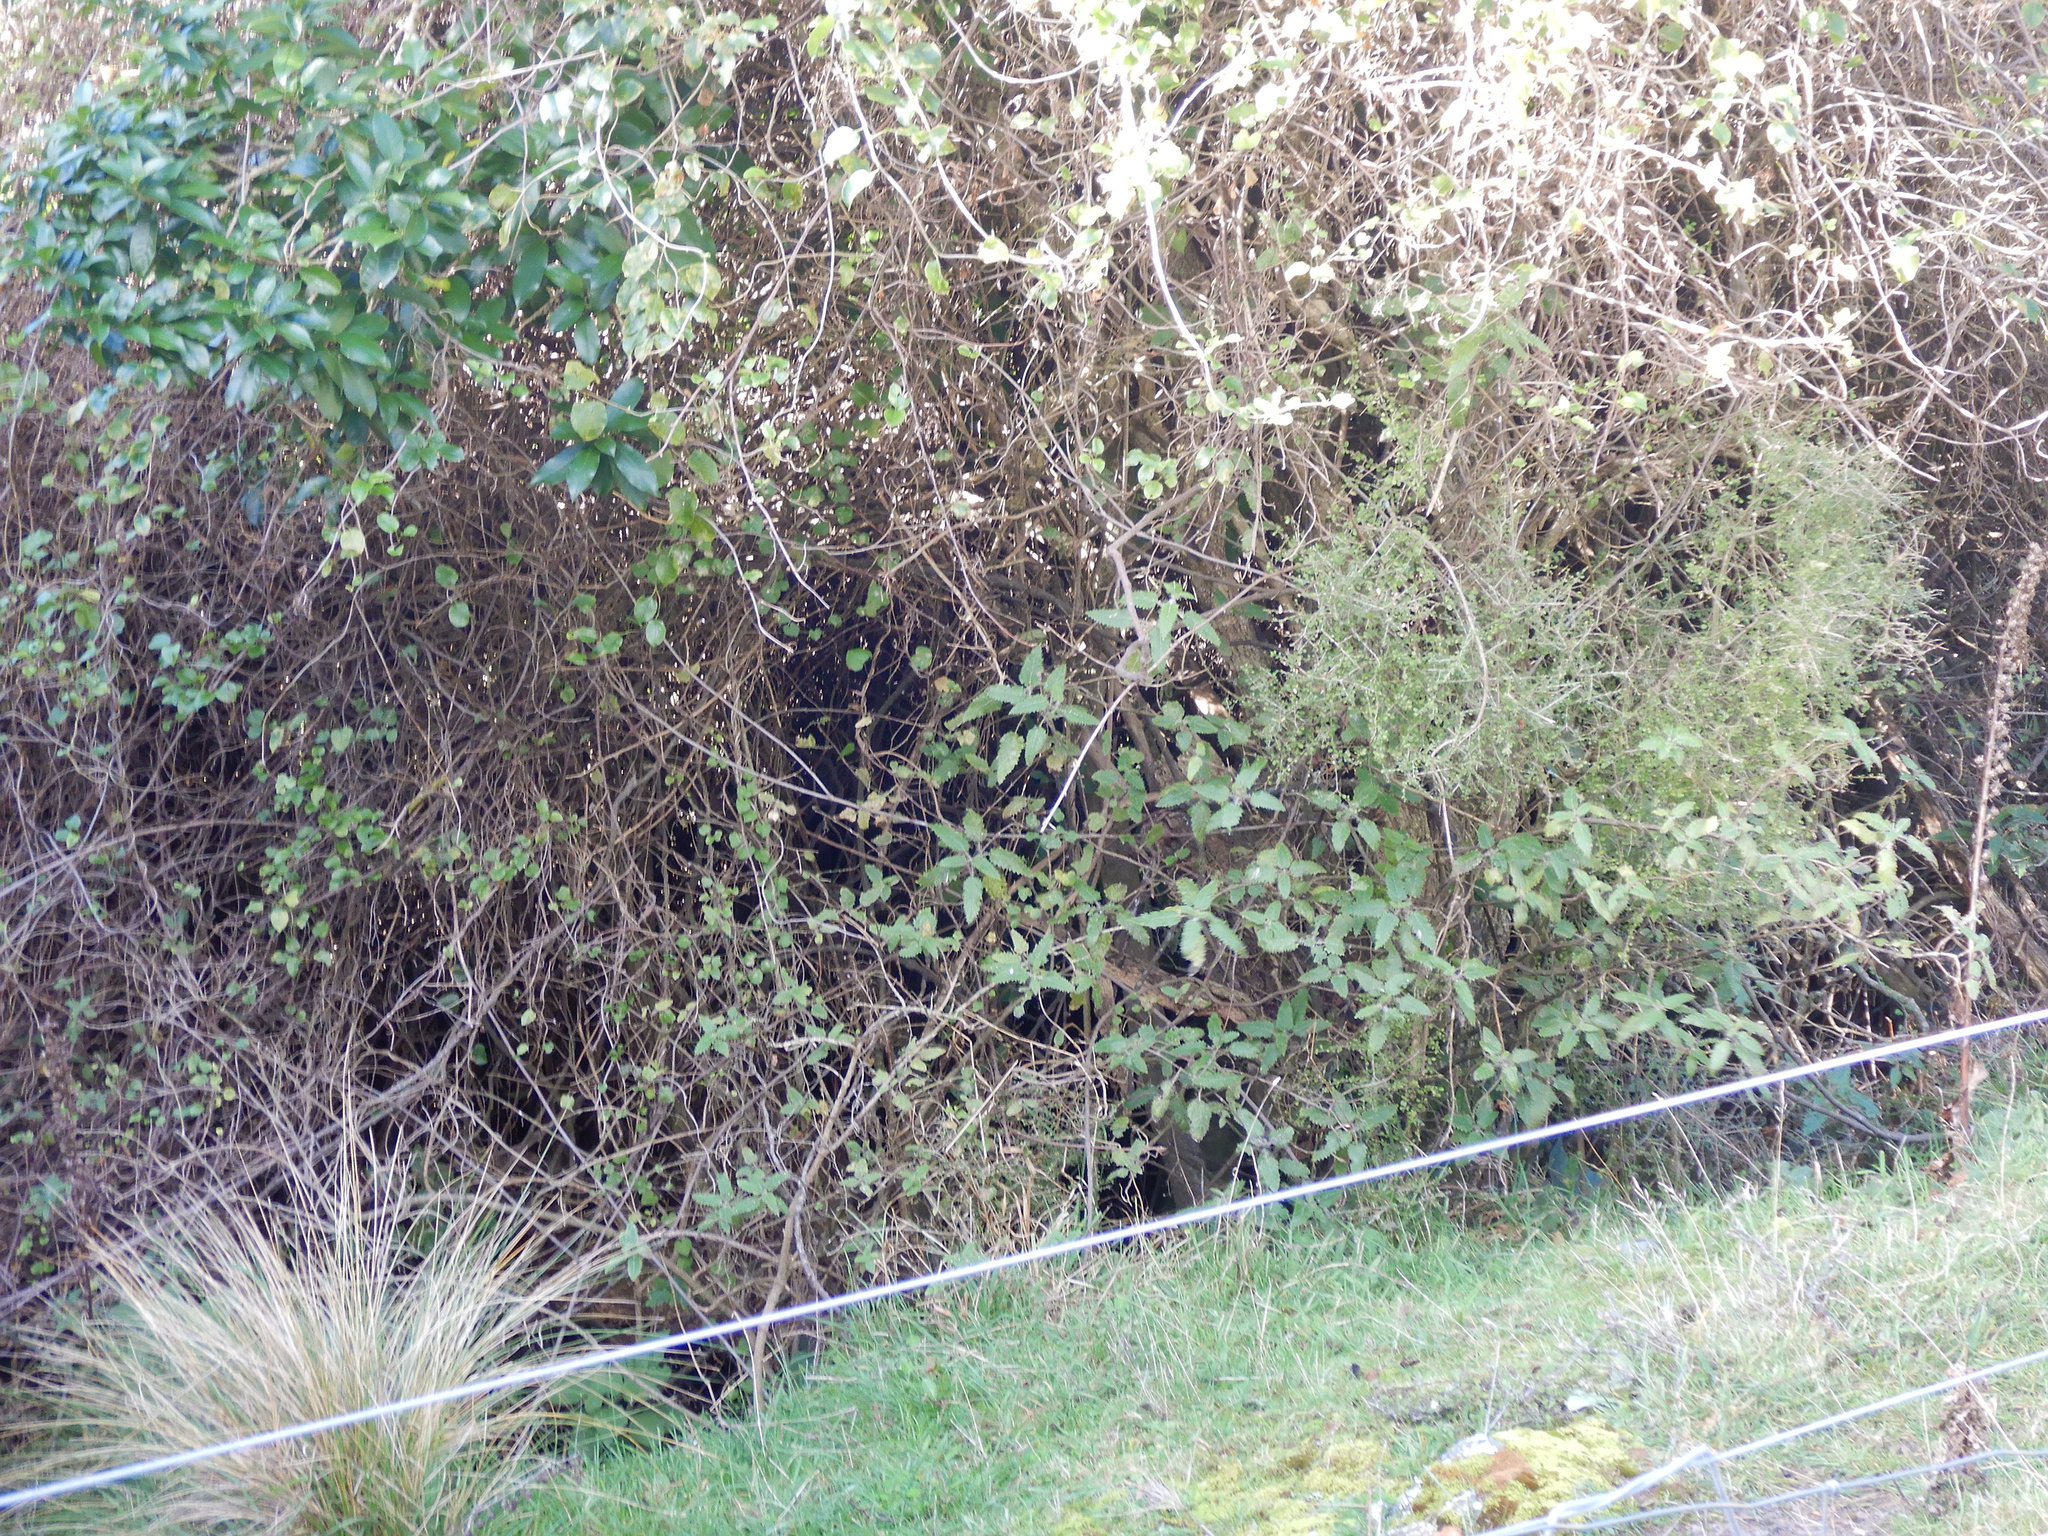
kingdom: Plantae
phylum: Tracheophyta
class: Magnoliopsida
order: Rosales
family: Urticaceae
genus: Urtica
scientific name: Urtica ferox
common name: Tree nettle
